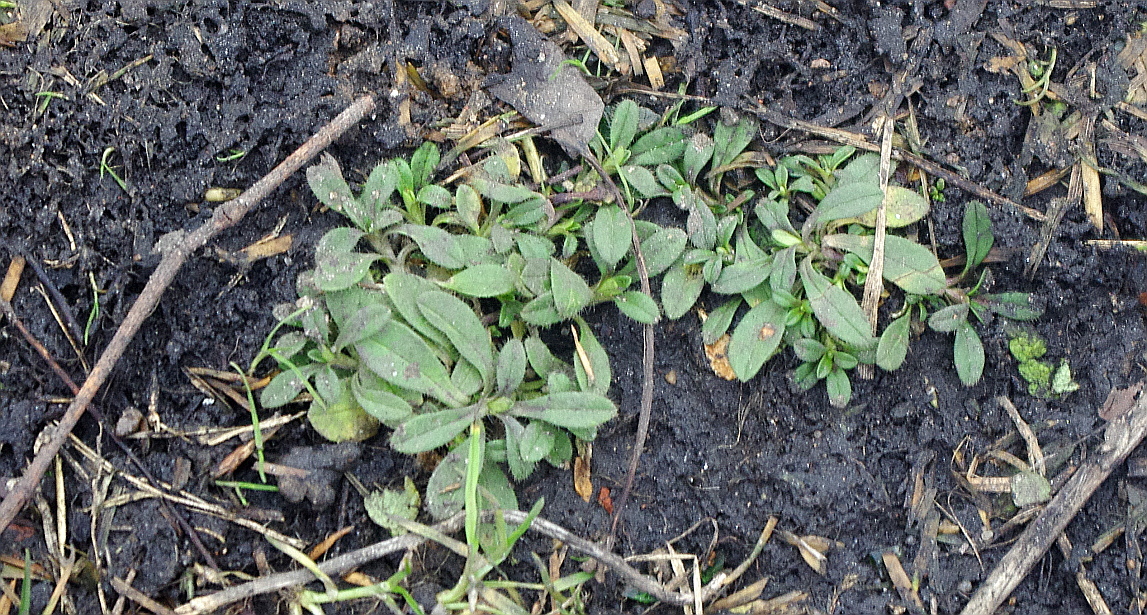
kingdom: Plantae
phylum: Tracheophyta
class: Magnoliopsida
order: Caryophyllales
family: Caryophyllaceae
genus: Cerastium
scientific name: Cerastium holosteoides
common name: Big chickweed
